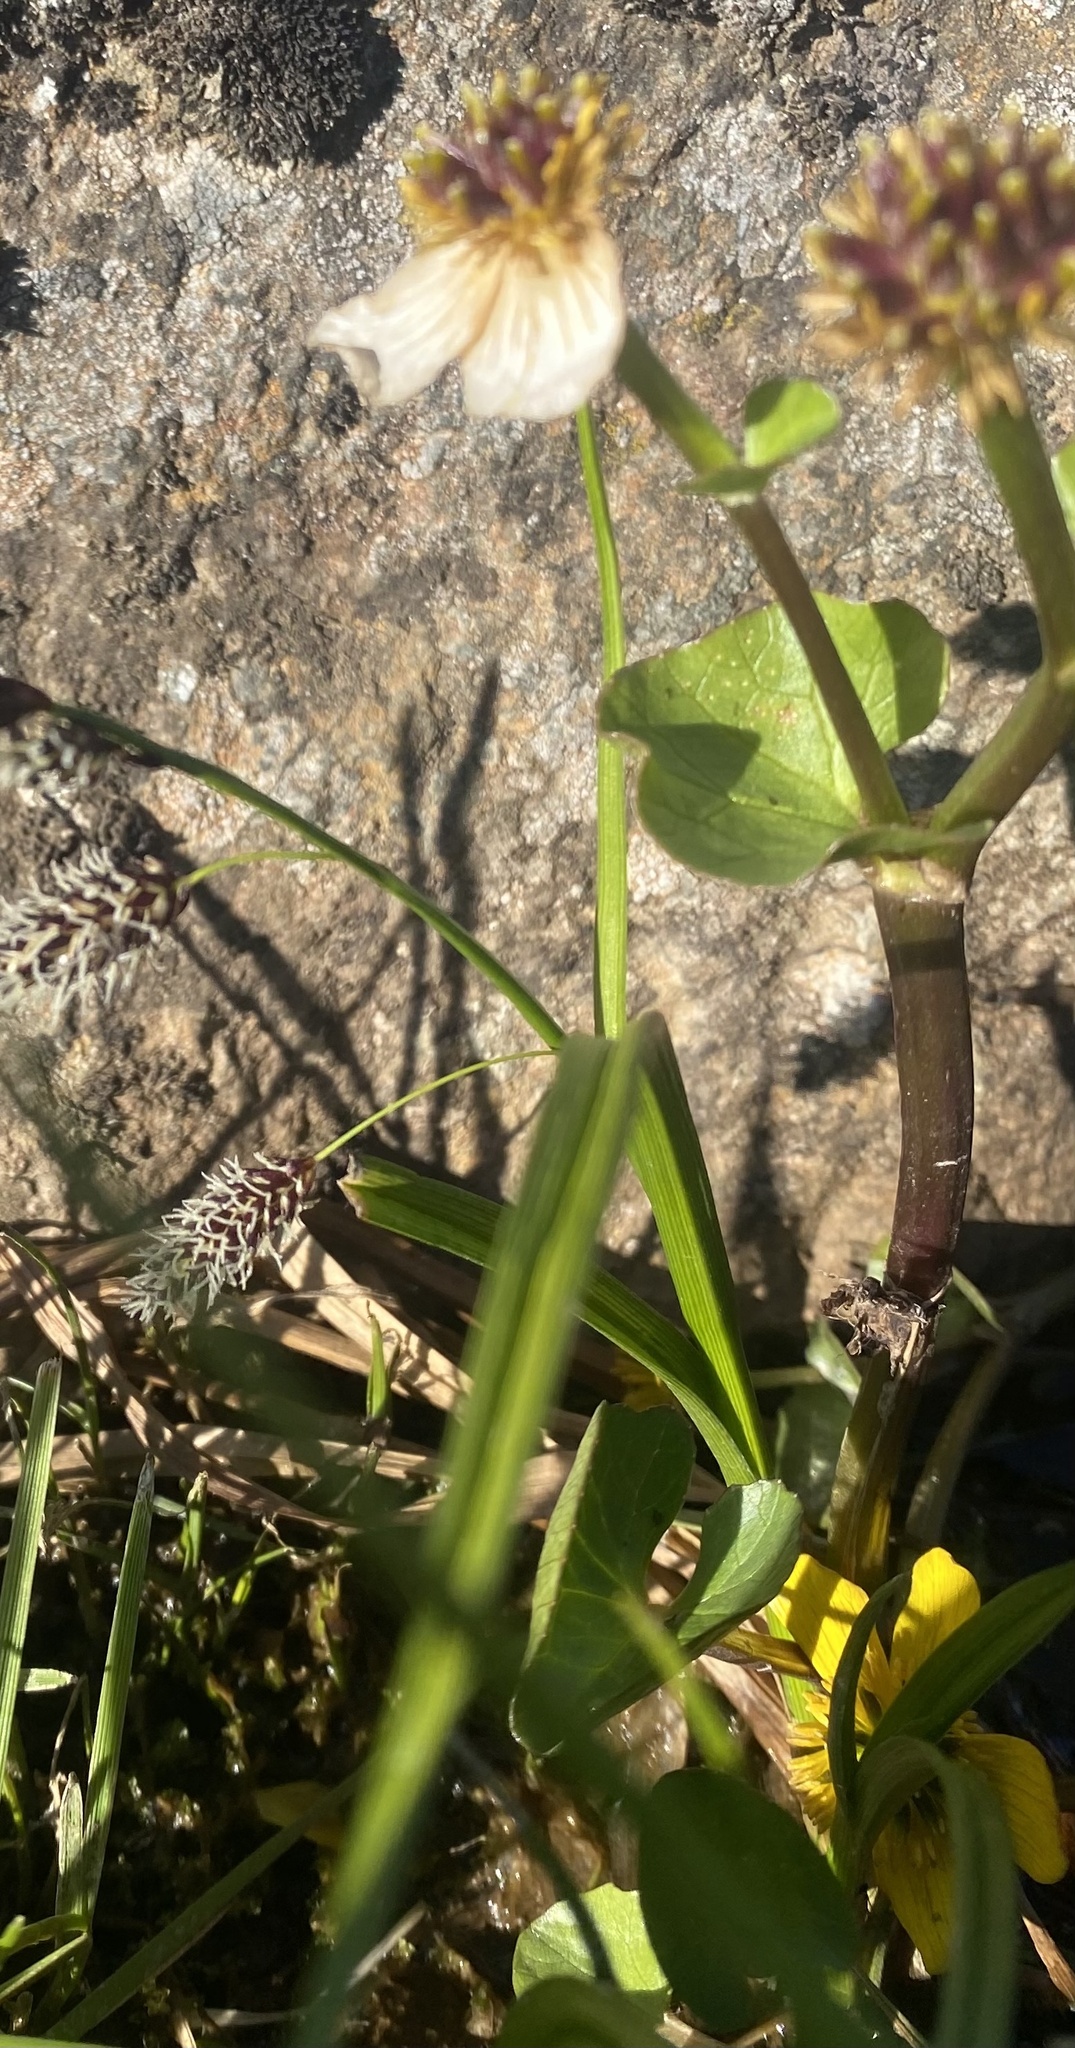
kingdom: Plantae
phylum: Tracheophyta
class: Magnoliopsida
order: Ranunculales
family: Ranunculaceae
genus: Caltha
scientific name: Caltha palustris
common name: Marsh marigold
